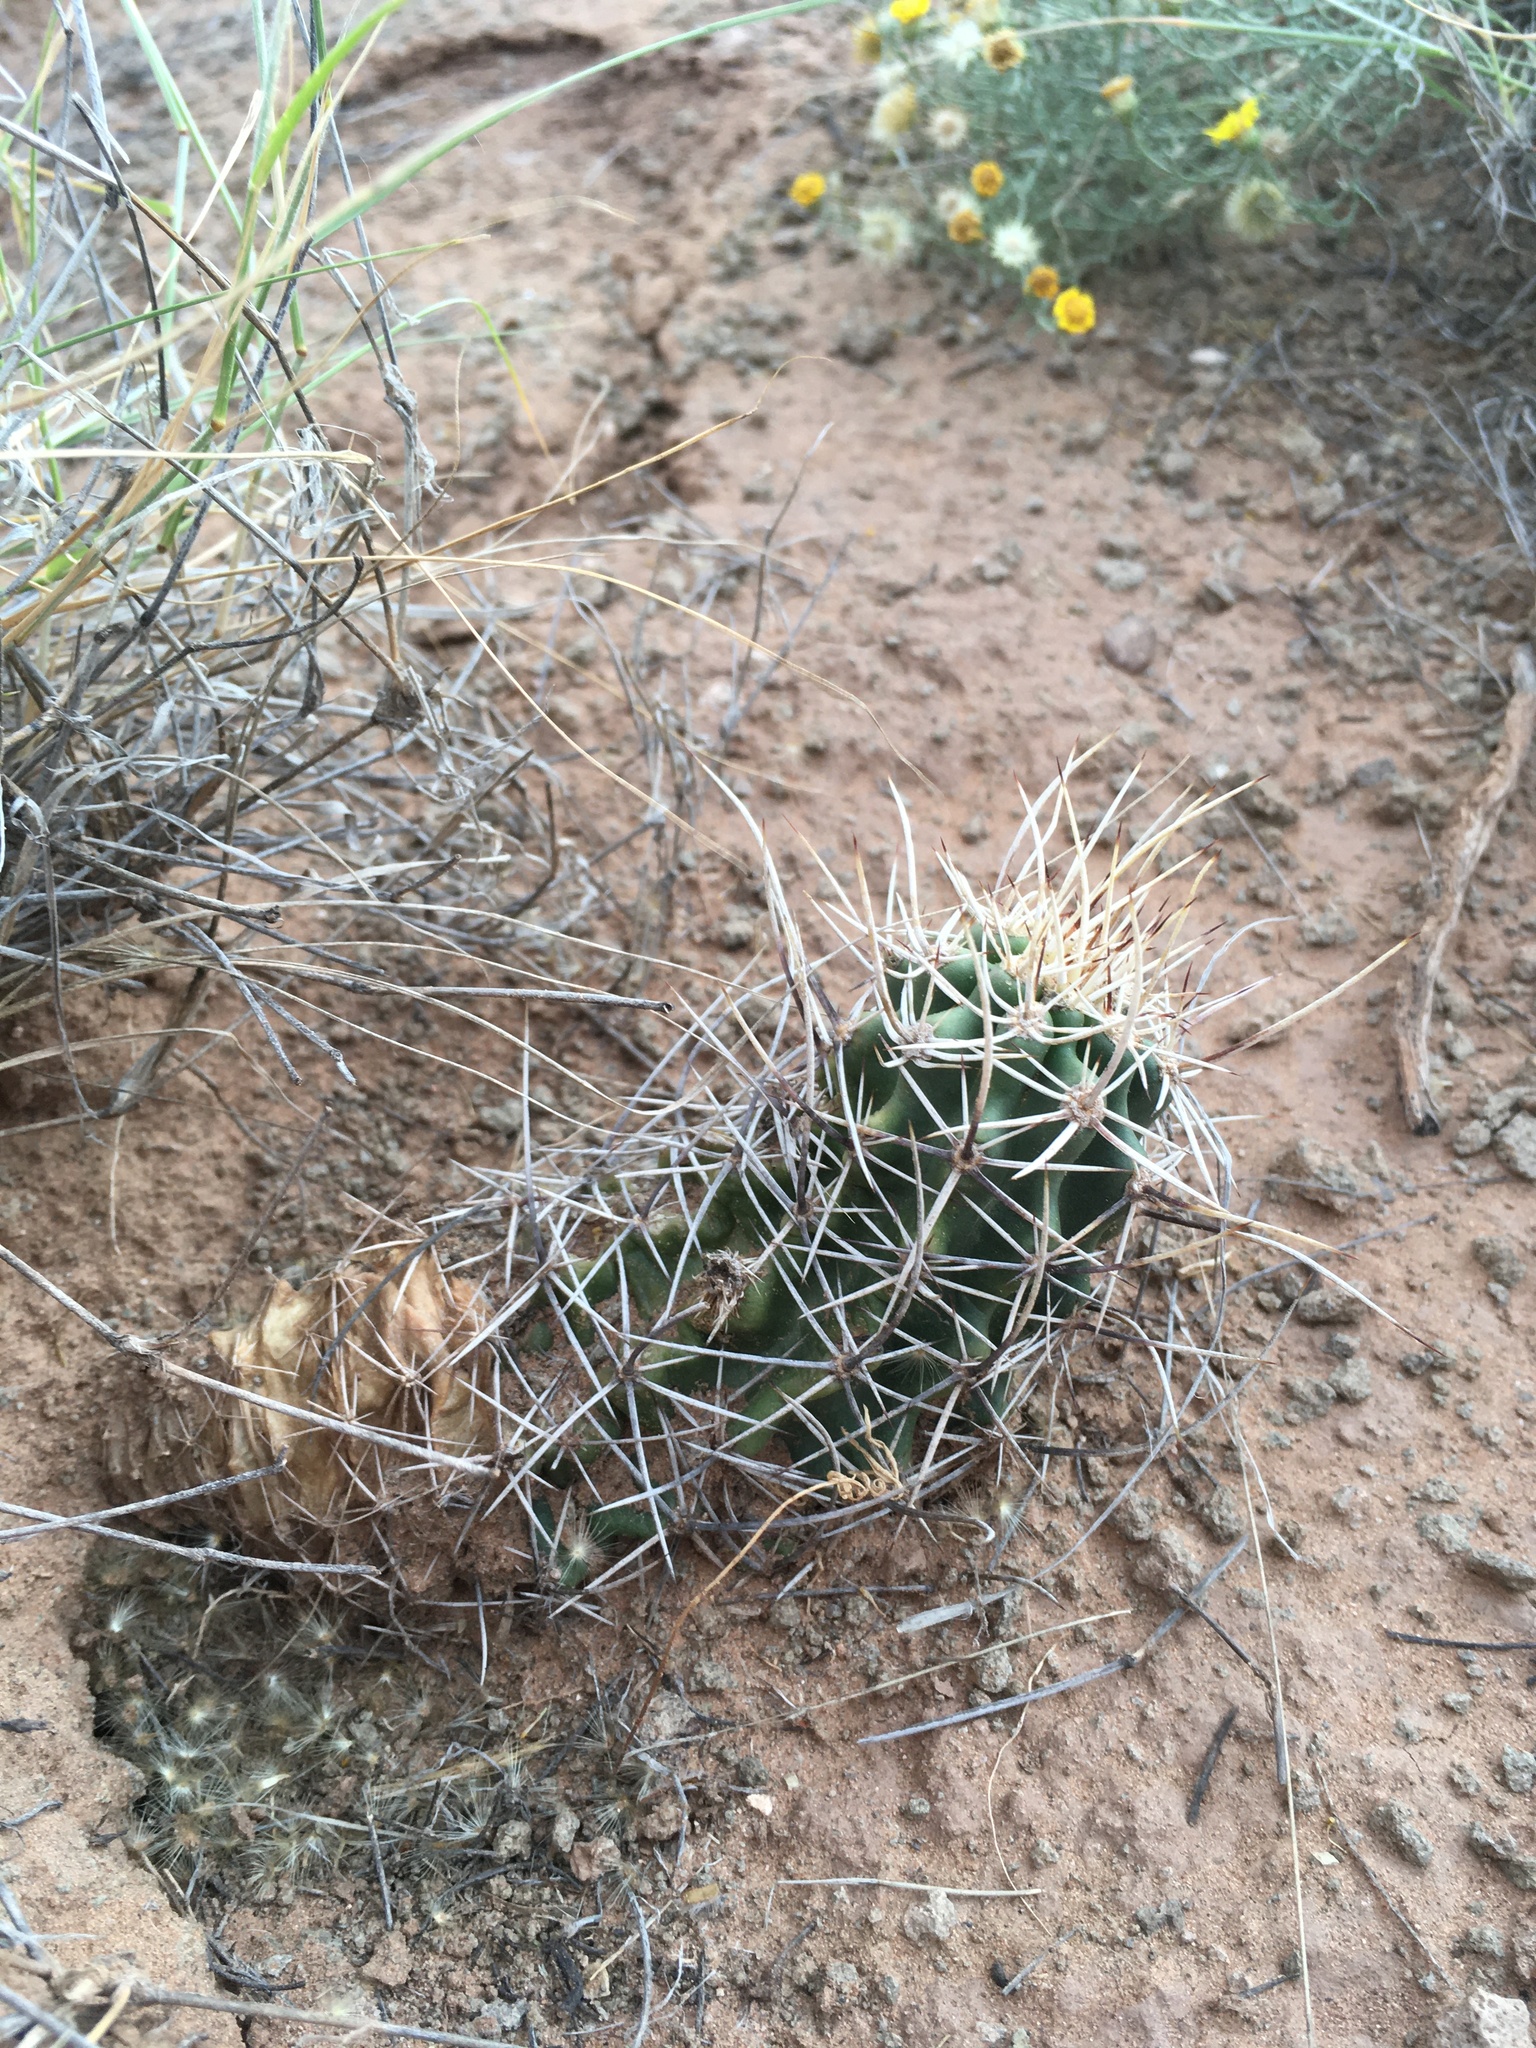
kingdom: Plantae
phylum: Tracheophyta
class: Magnoliopsida
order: Caryophyllales
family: Cactaceae
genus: Echinocereus
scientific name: Echinocereus fendleri
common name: Fendler's hedgehog cactus
